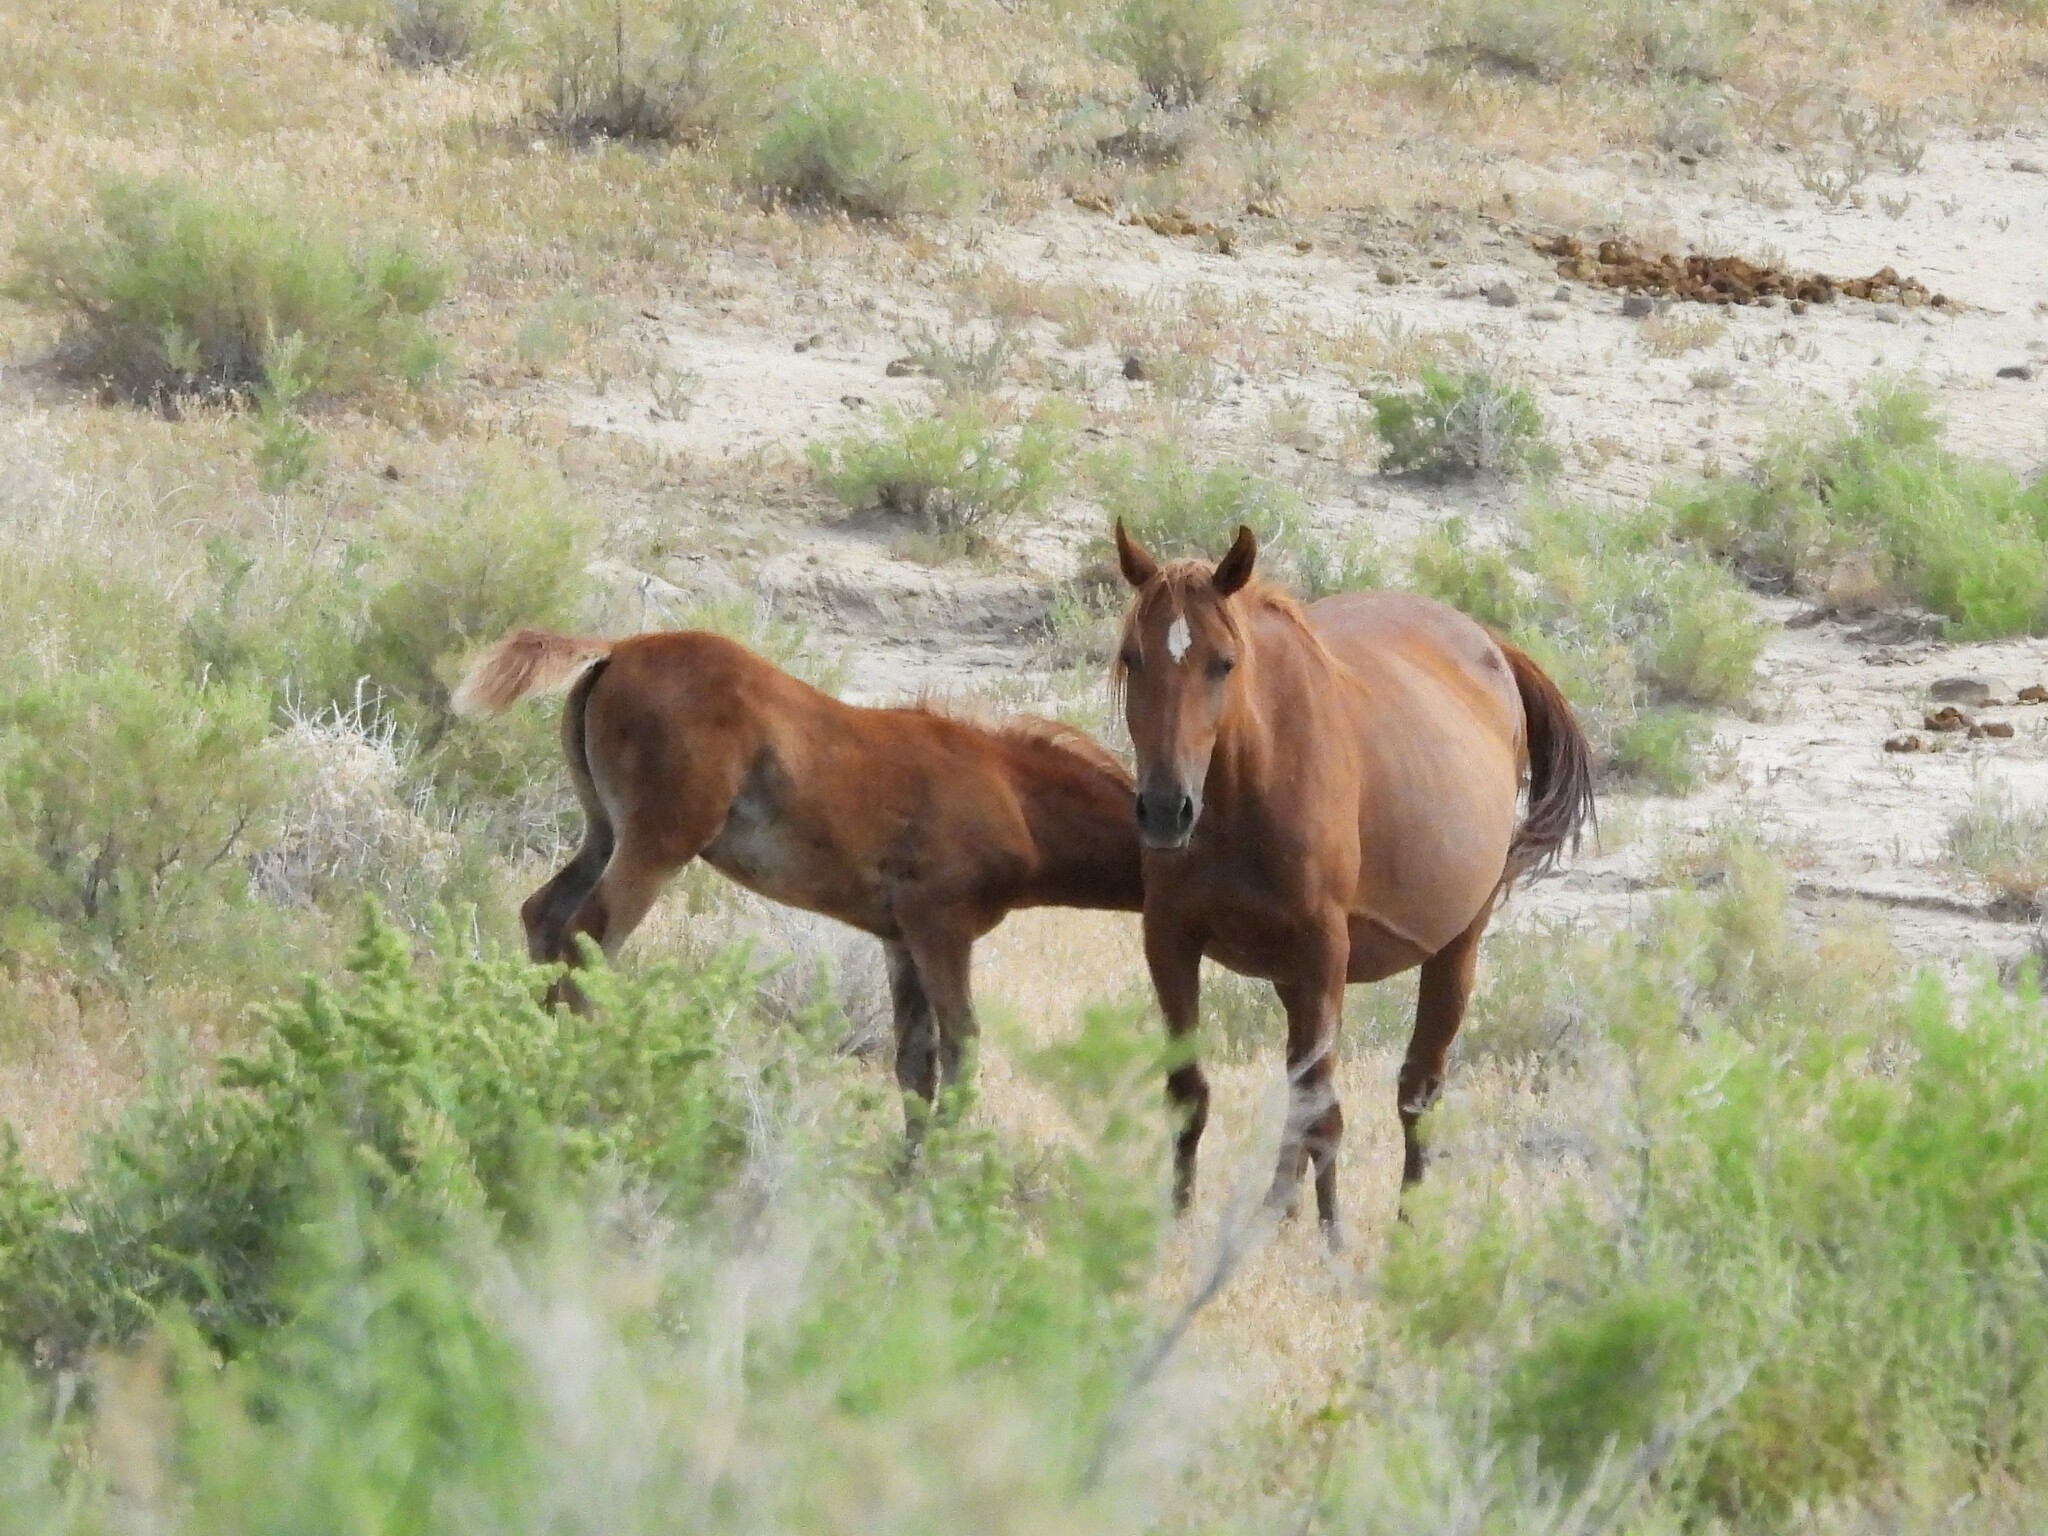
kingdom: Animalia
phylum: Chordata
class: Mammalia
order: Perissodactyla
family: Equidae
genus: Equus
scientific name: Equus caballus
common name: Horse
